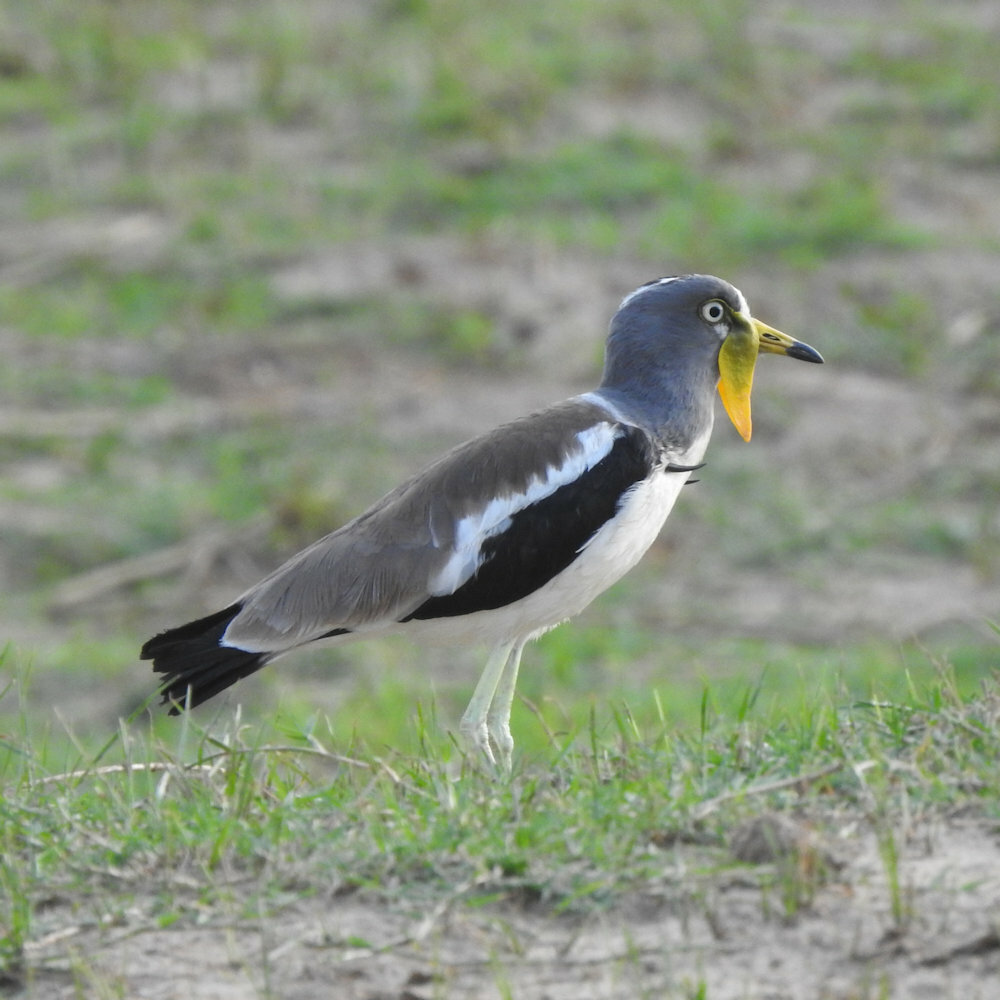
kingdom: Animalia
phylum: Chordata
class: Aves
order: Charadriiformes
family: Charadriidae
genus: Vanellus
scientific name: Vanellus albiceps
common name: White-crowned lapwing
